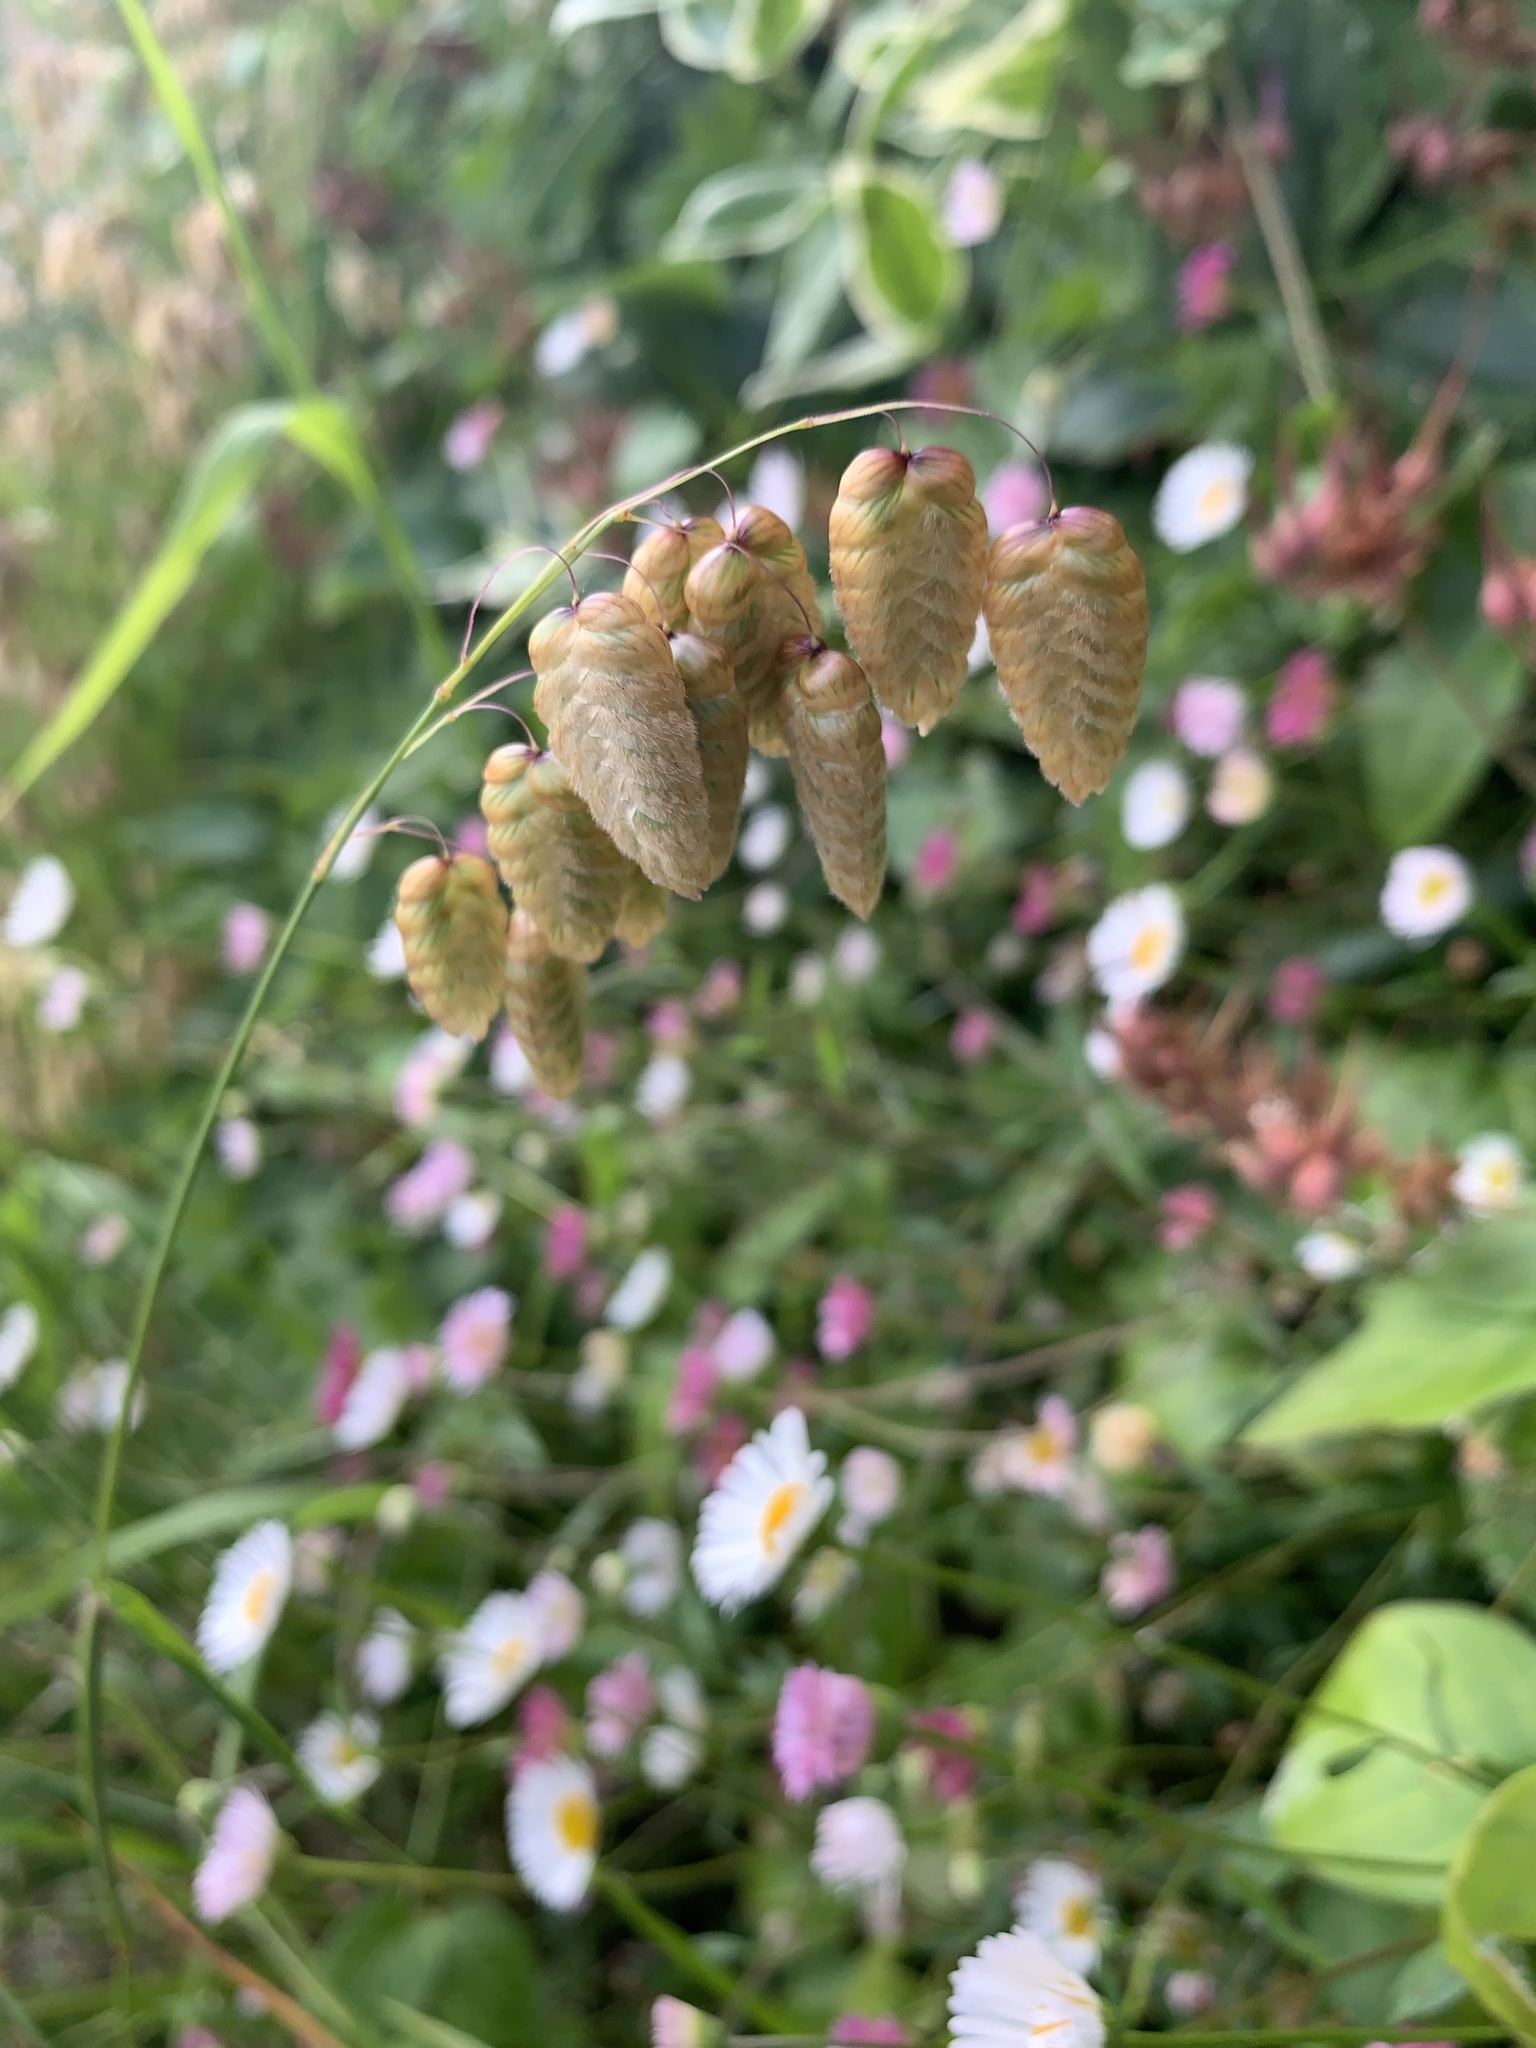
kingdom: Plantae
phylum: Tracheophyta
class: Liliopsida
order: Poales
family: Poaceae
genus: Briza
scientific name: Briza maxima
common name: Big quakinggrass
